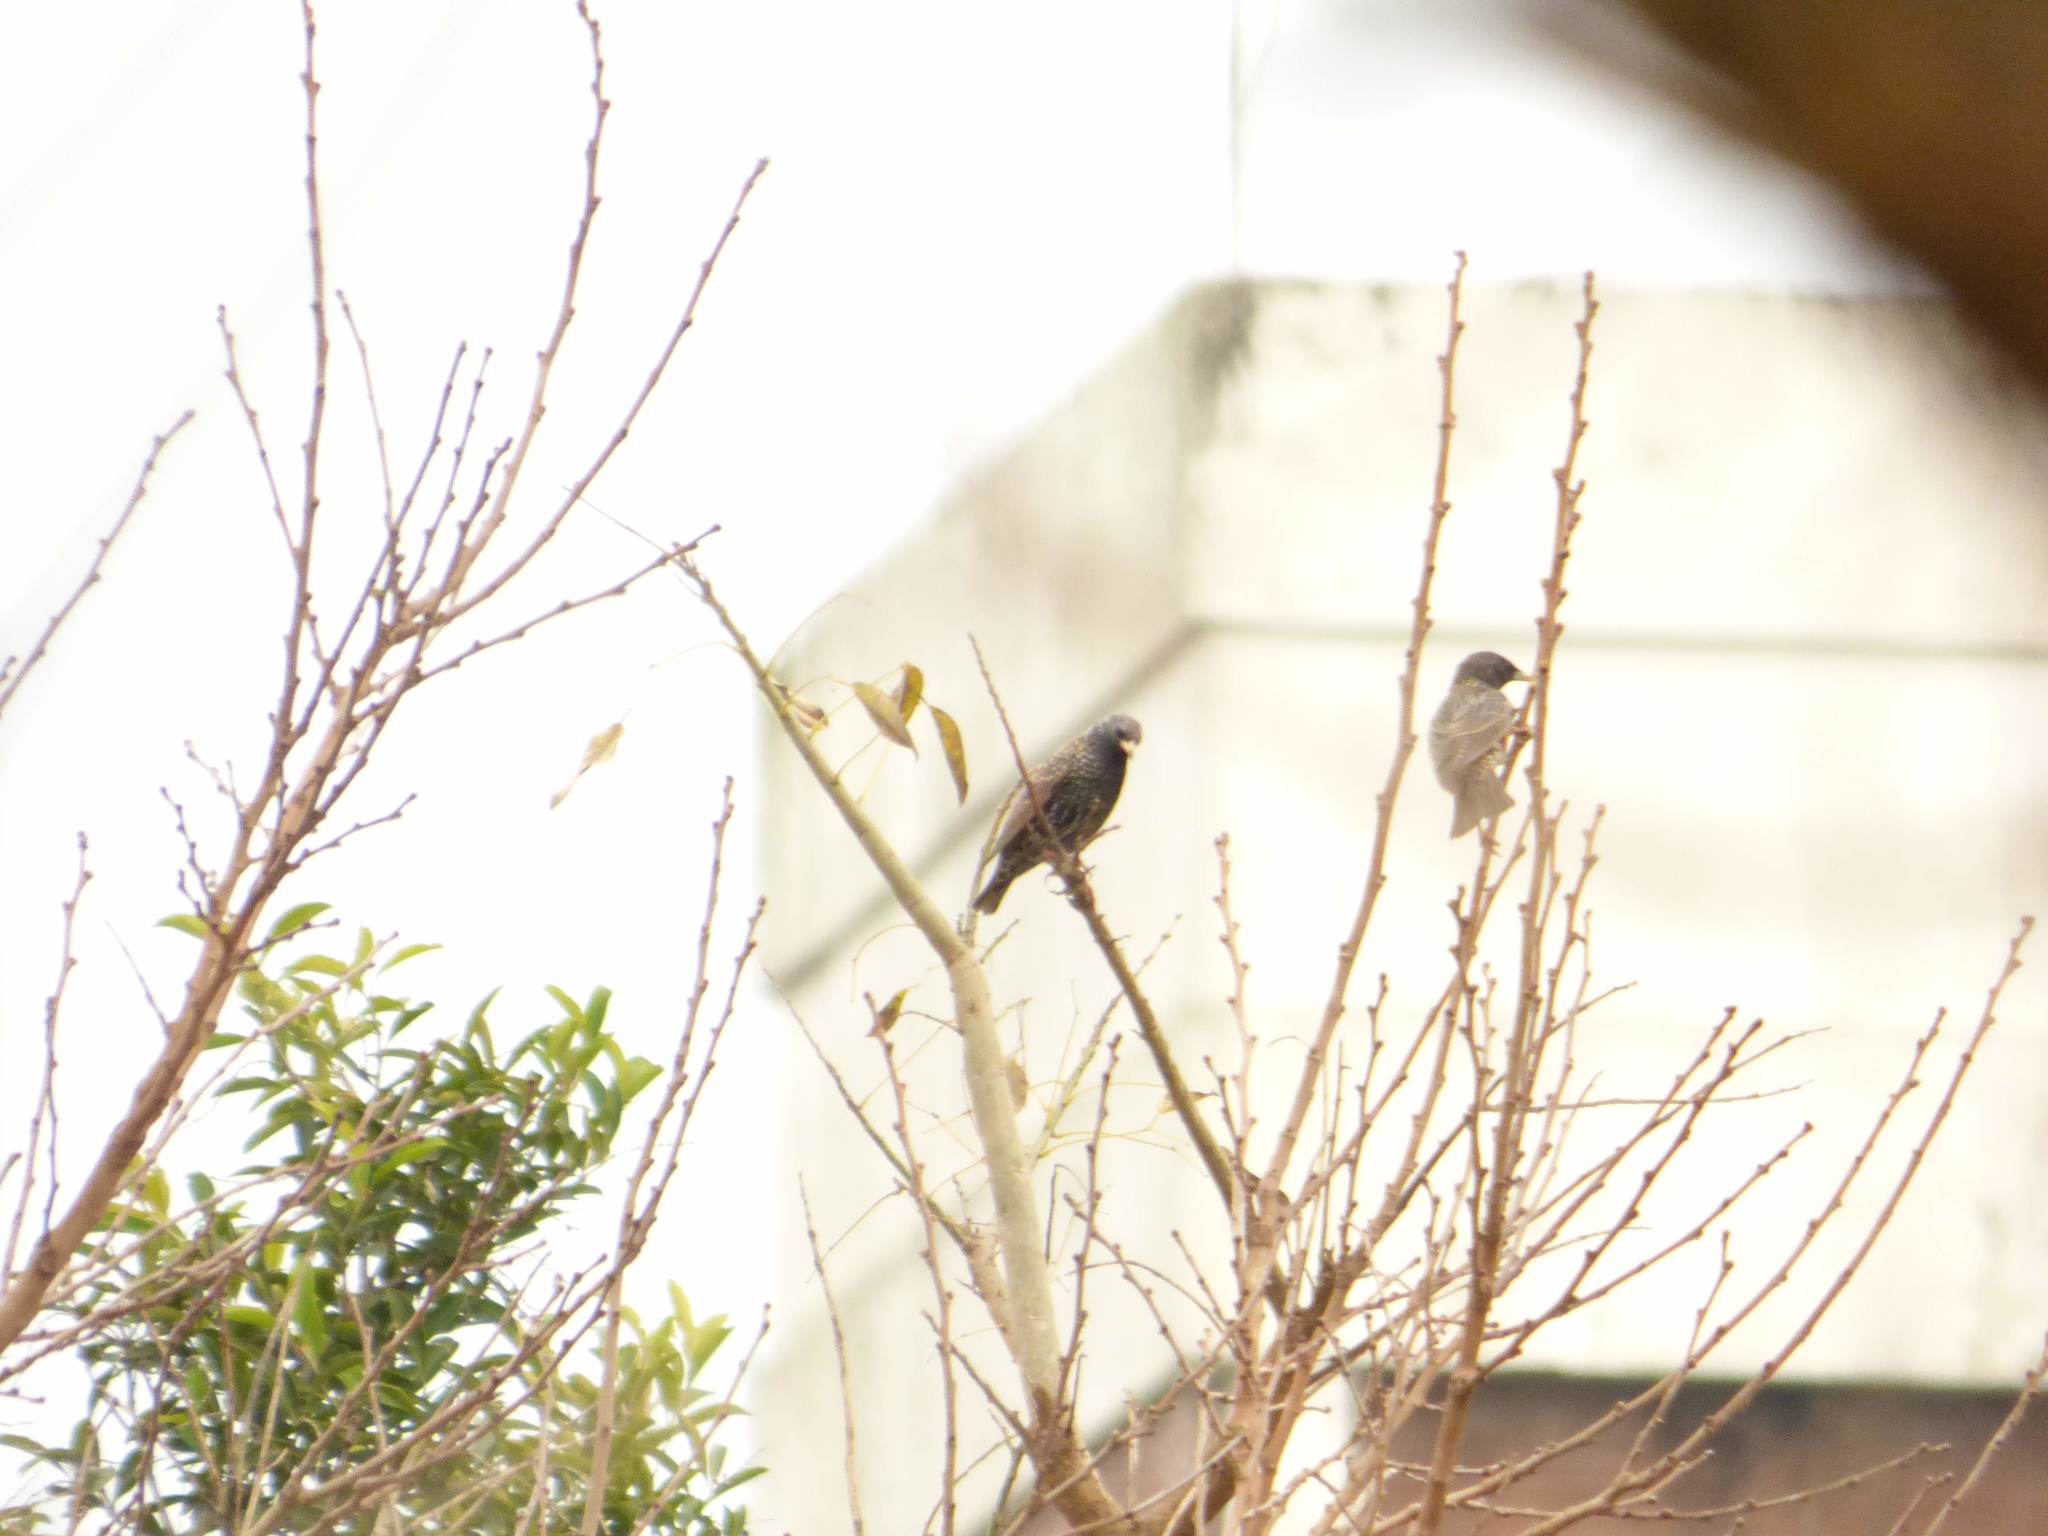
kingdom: Animalia
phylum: Chordata
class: Aves
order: Passeriformes
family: Sturnidae
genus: Sturnus
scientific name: Sturnus vulgaris
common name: Common starling
